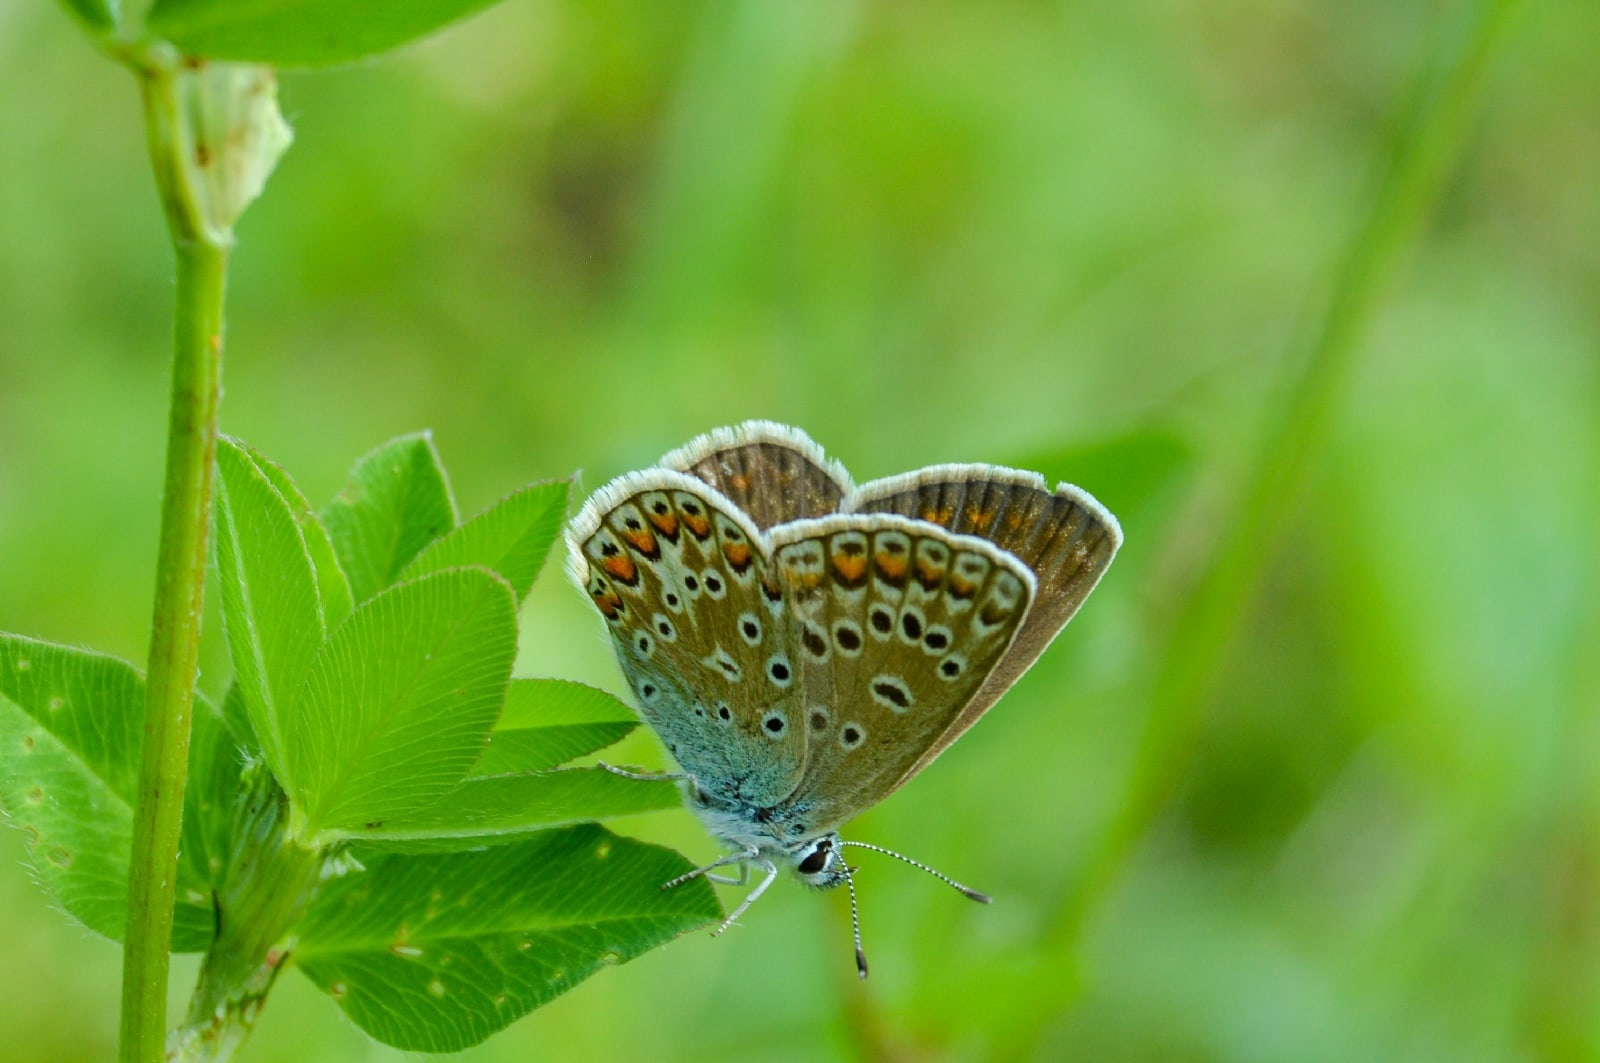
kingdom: Animalia
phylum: Arthropoda
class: Insecta
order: Lepidoptera
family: Lycaenidae
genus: Polyommatus
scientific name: Polyommatus icarus
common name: Common blue
